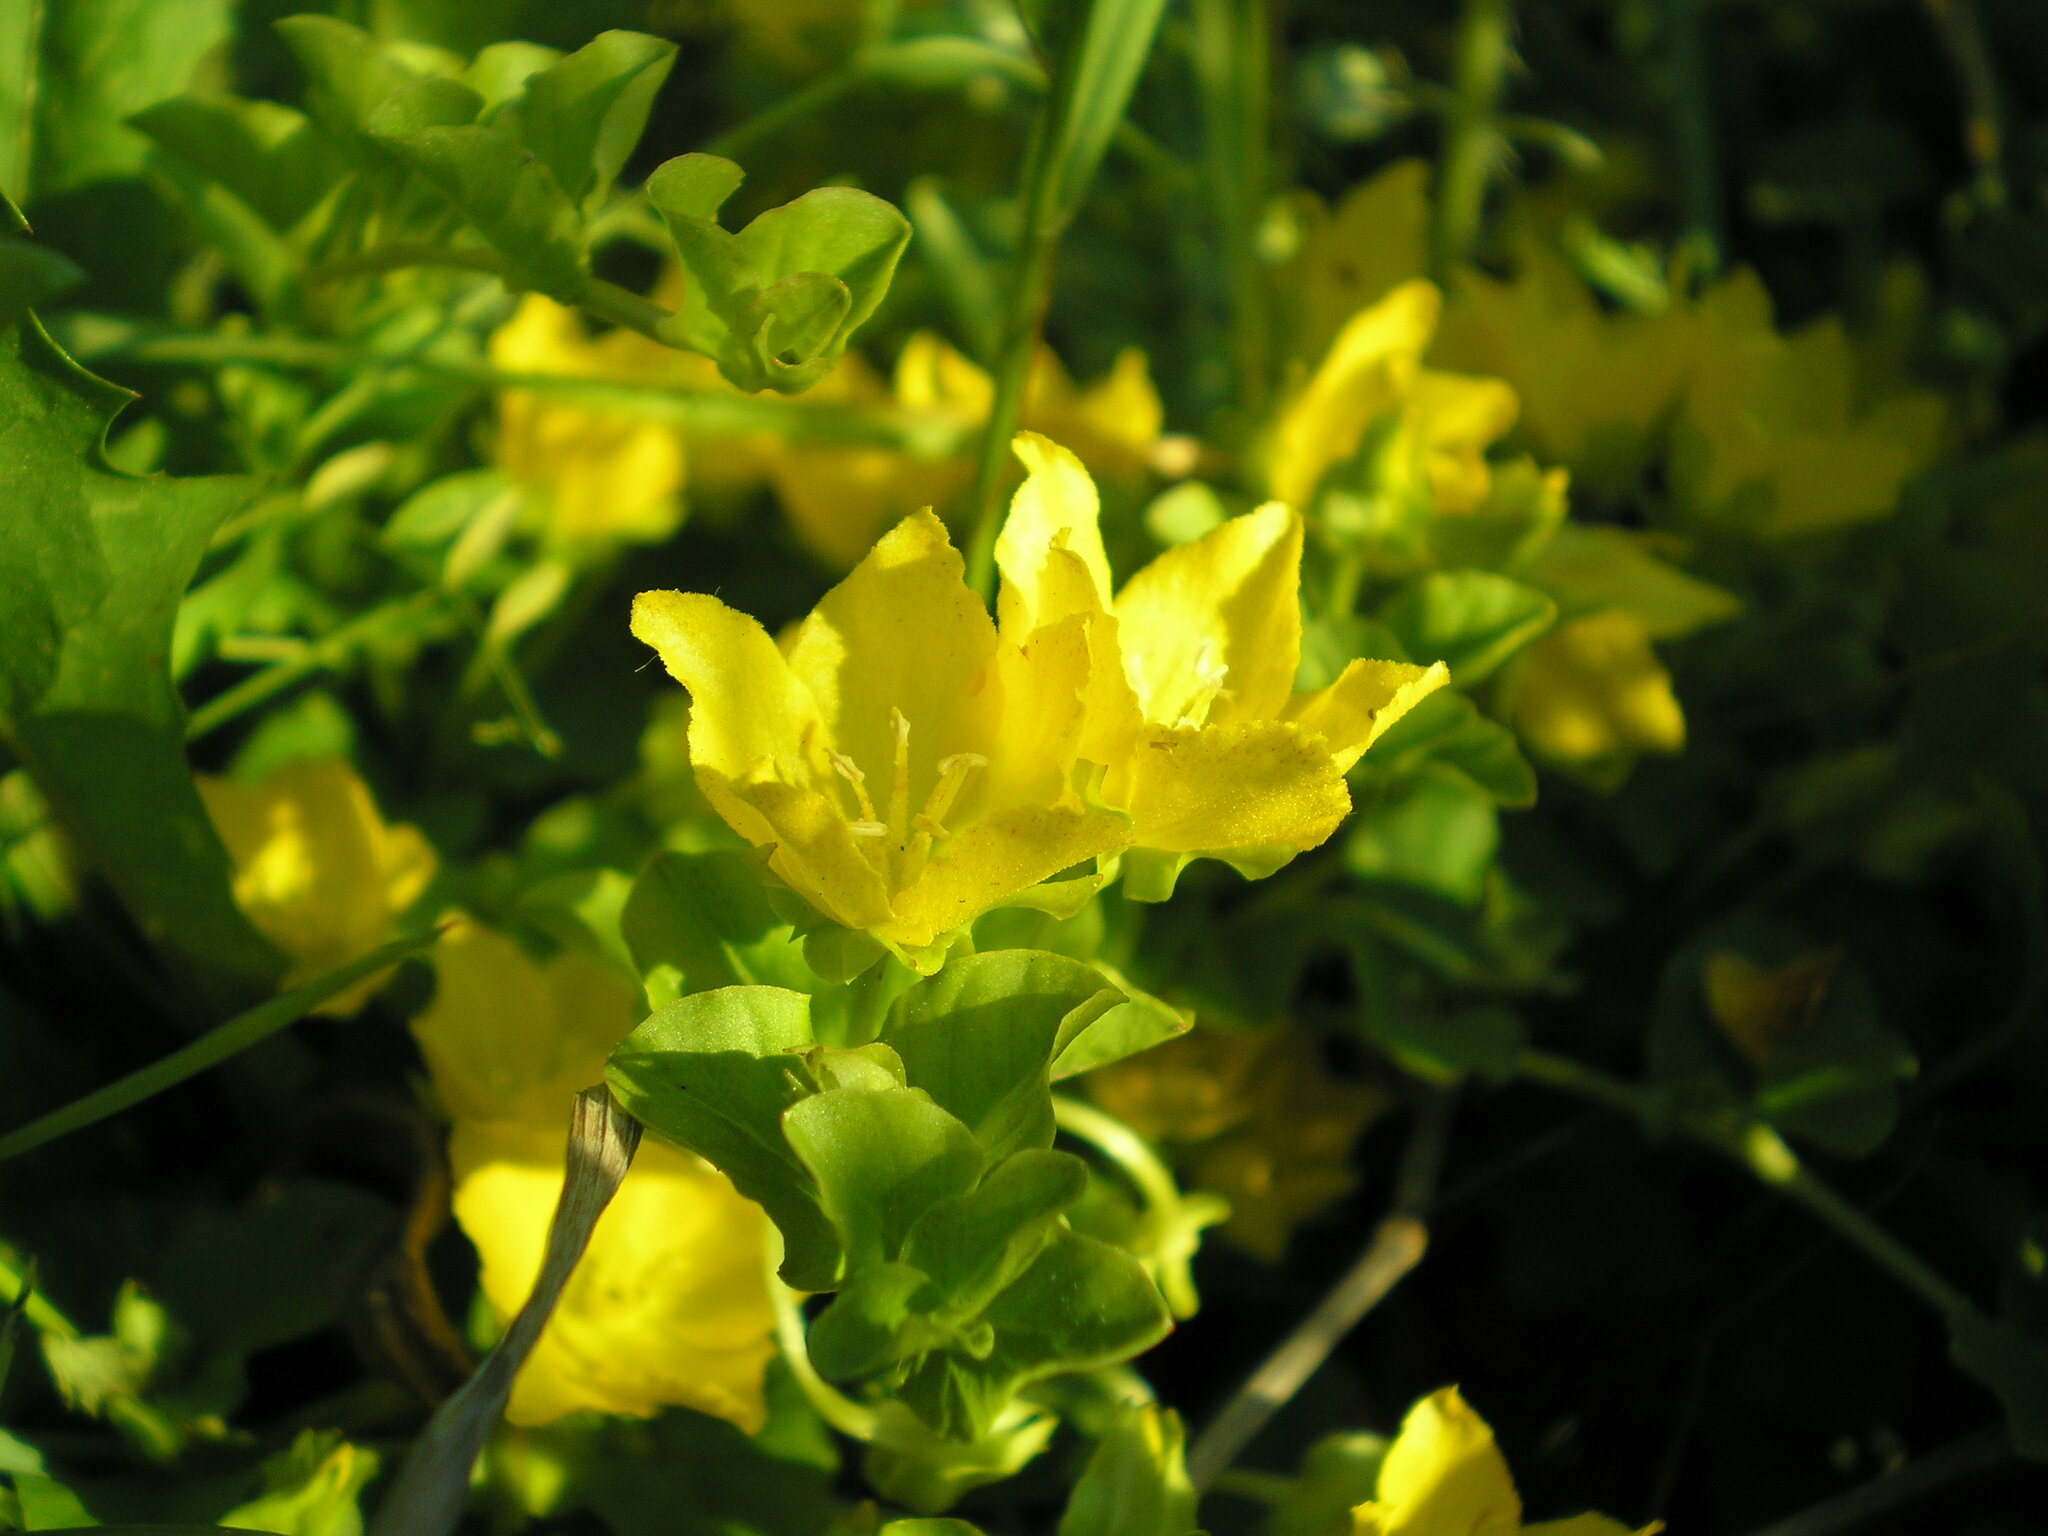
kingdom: Plantae
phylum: Tracheophyta
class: Magnoliopsida
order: Ericales
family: Primulaceae
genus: Lysimachia
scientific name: Lysimachia nummularia
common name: Moneywort
